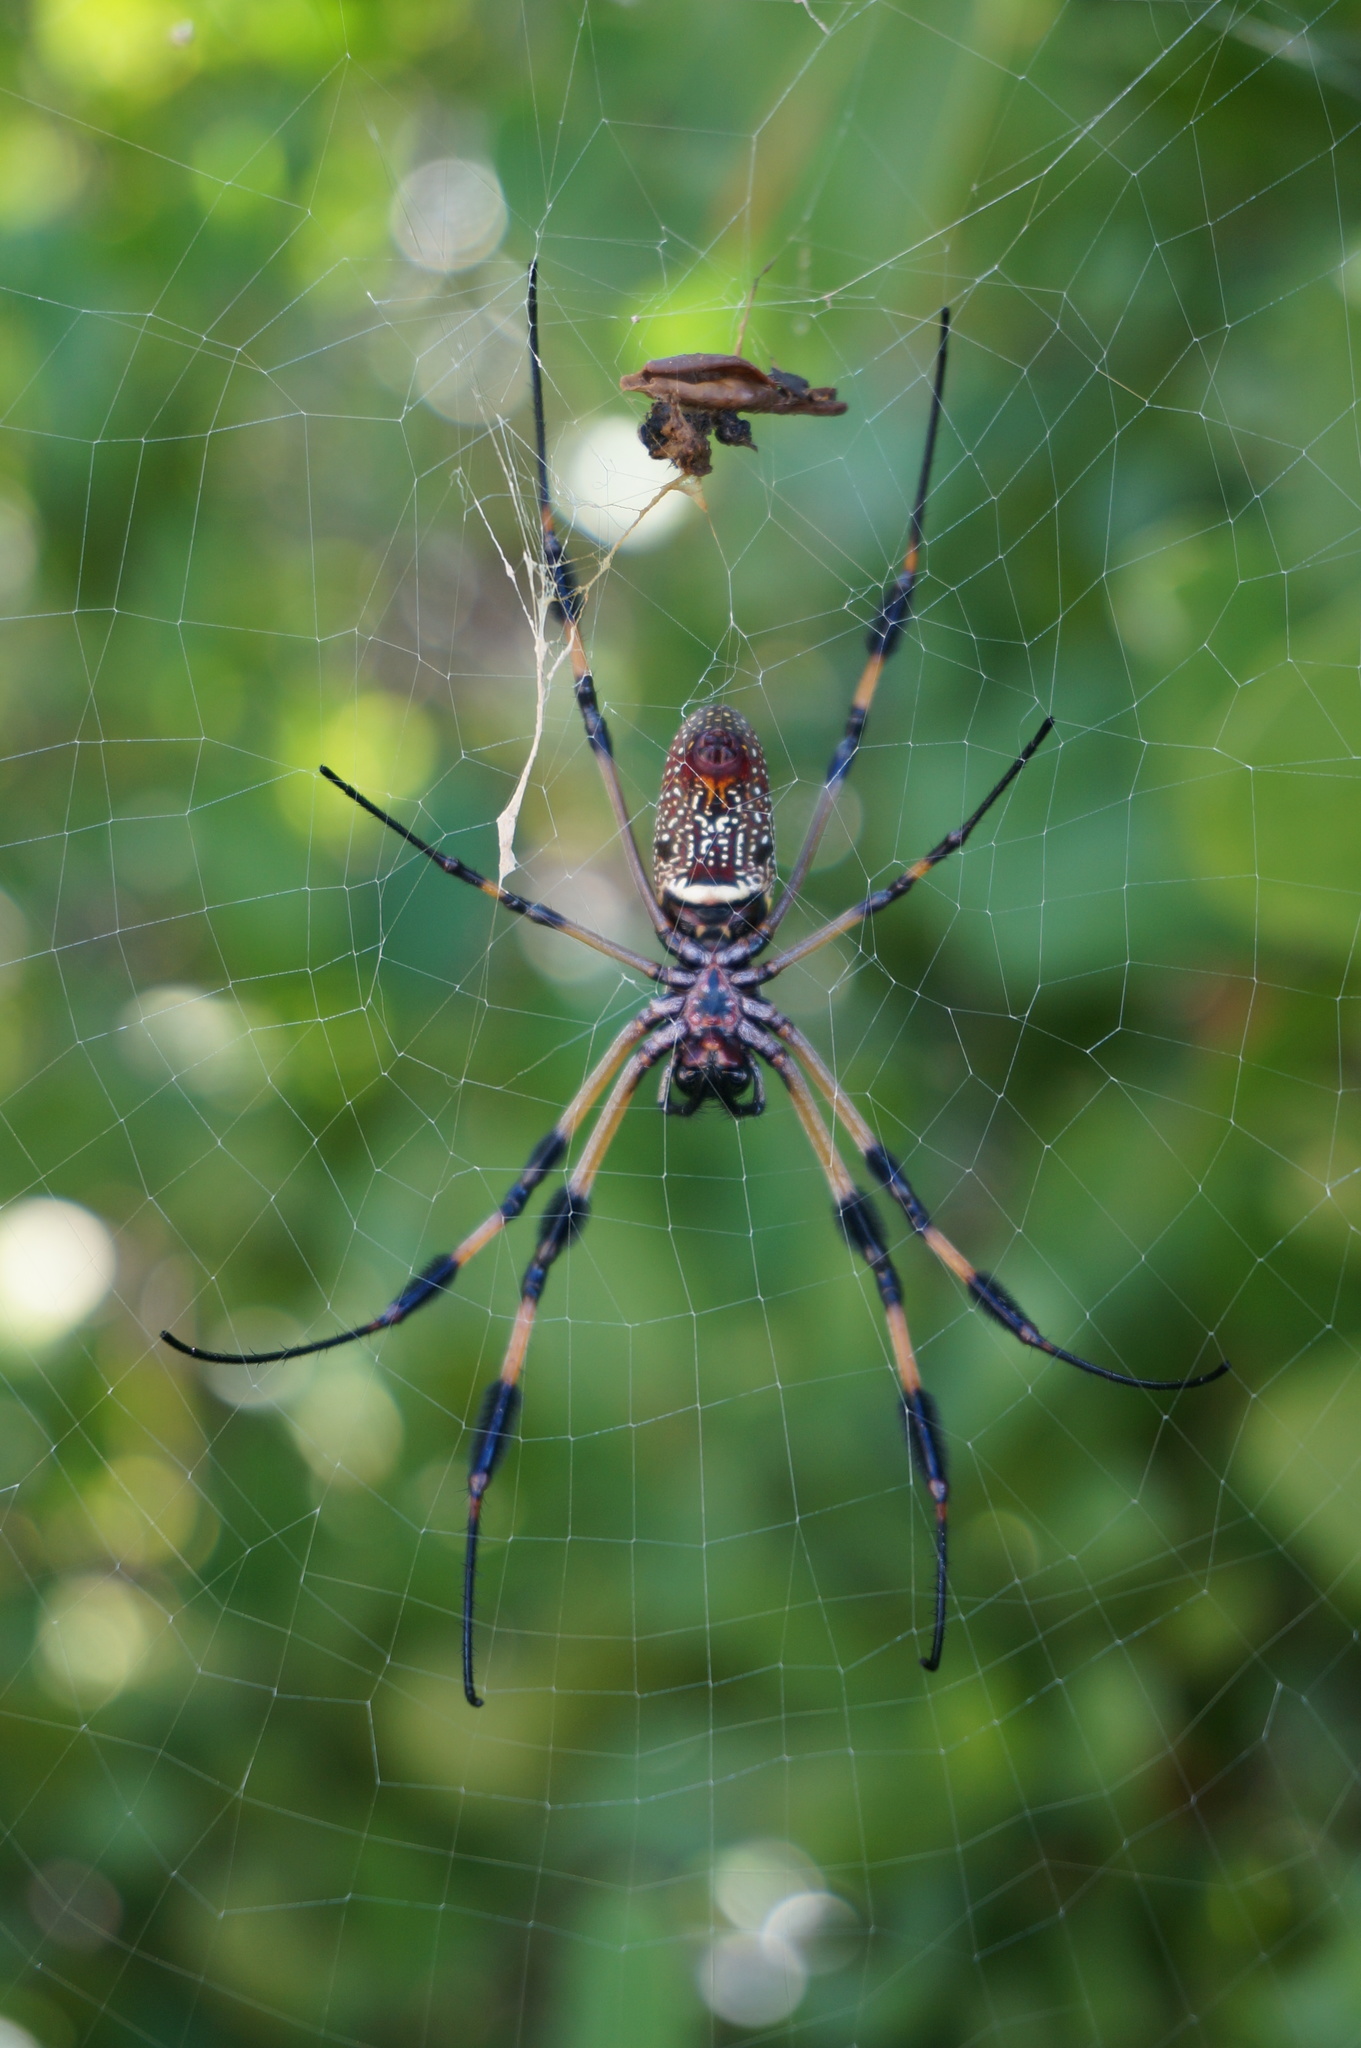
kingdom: Animalia
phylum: Arthropoda
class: Arachnida
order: Araneae
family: Araneidae
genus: Trichonephila
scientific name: Trichonephila clavipes
